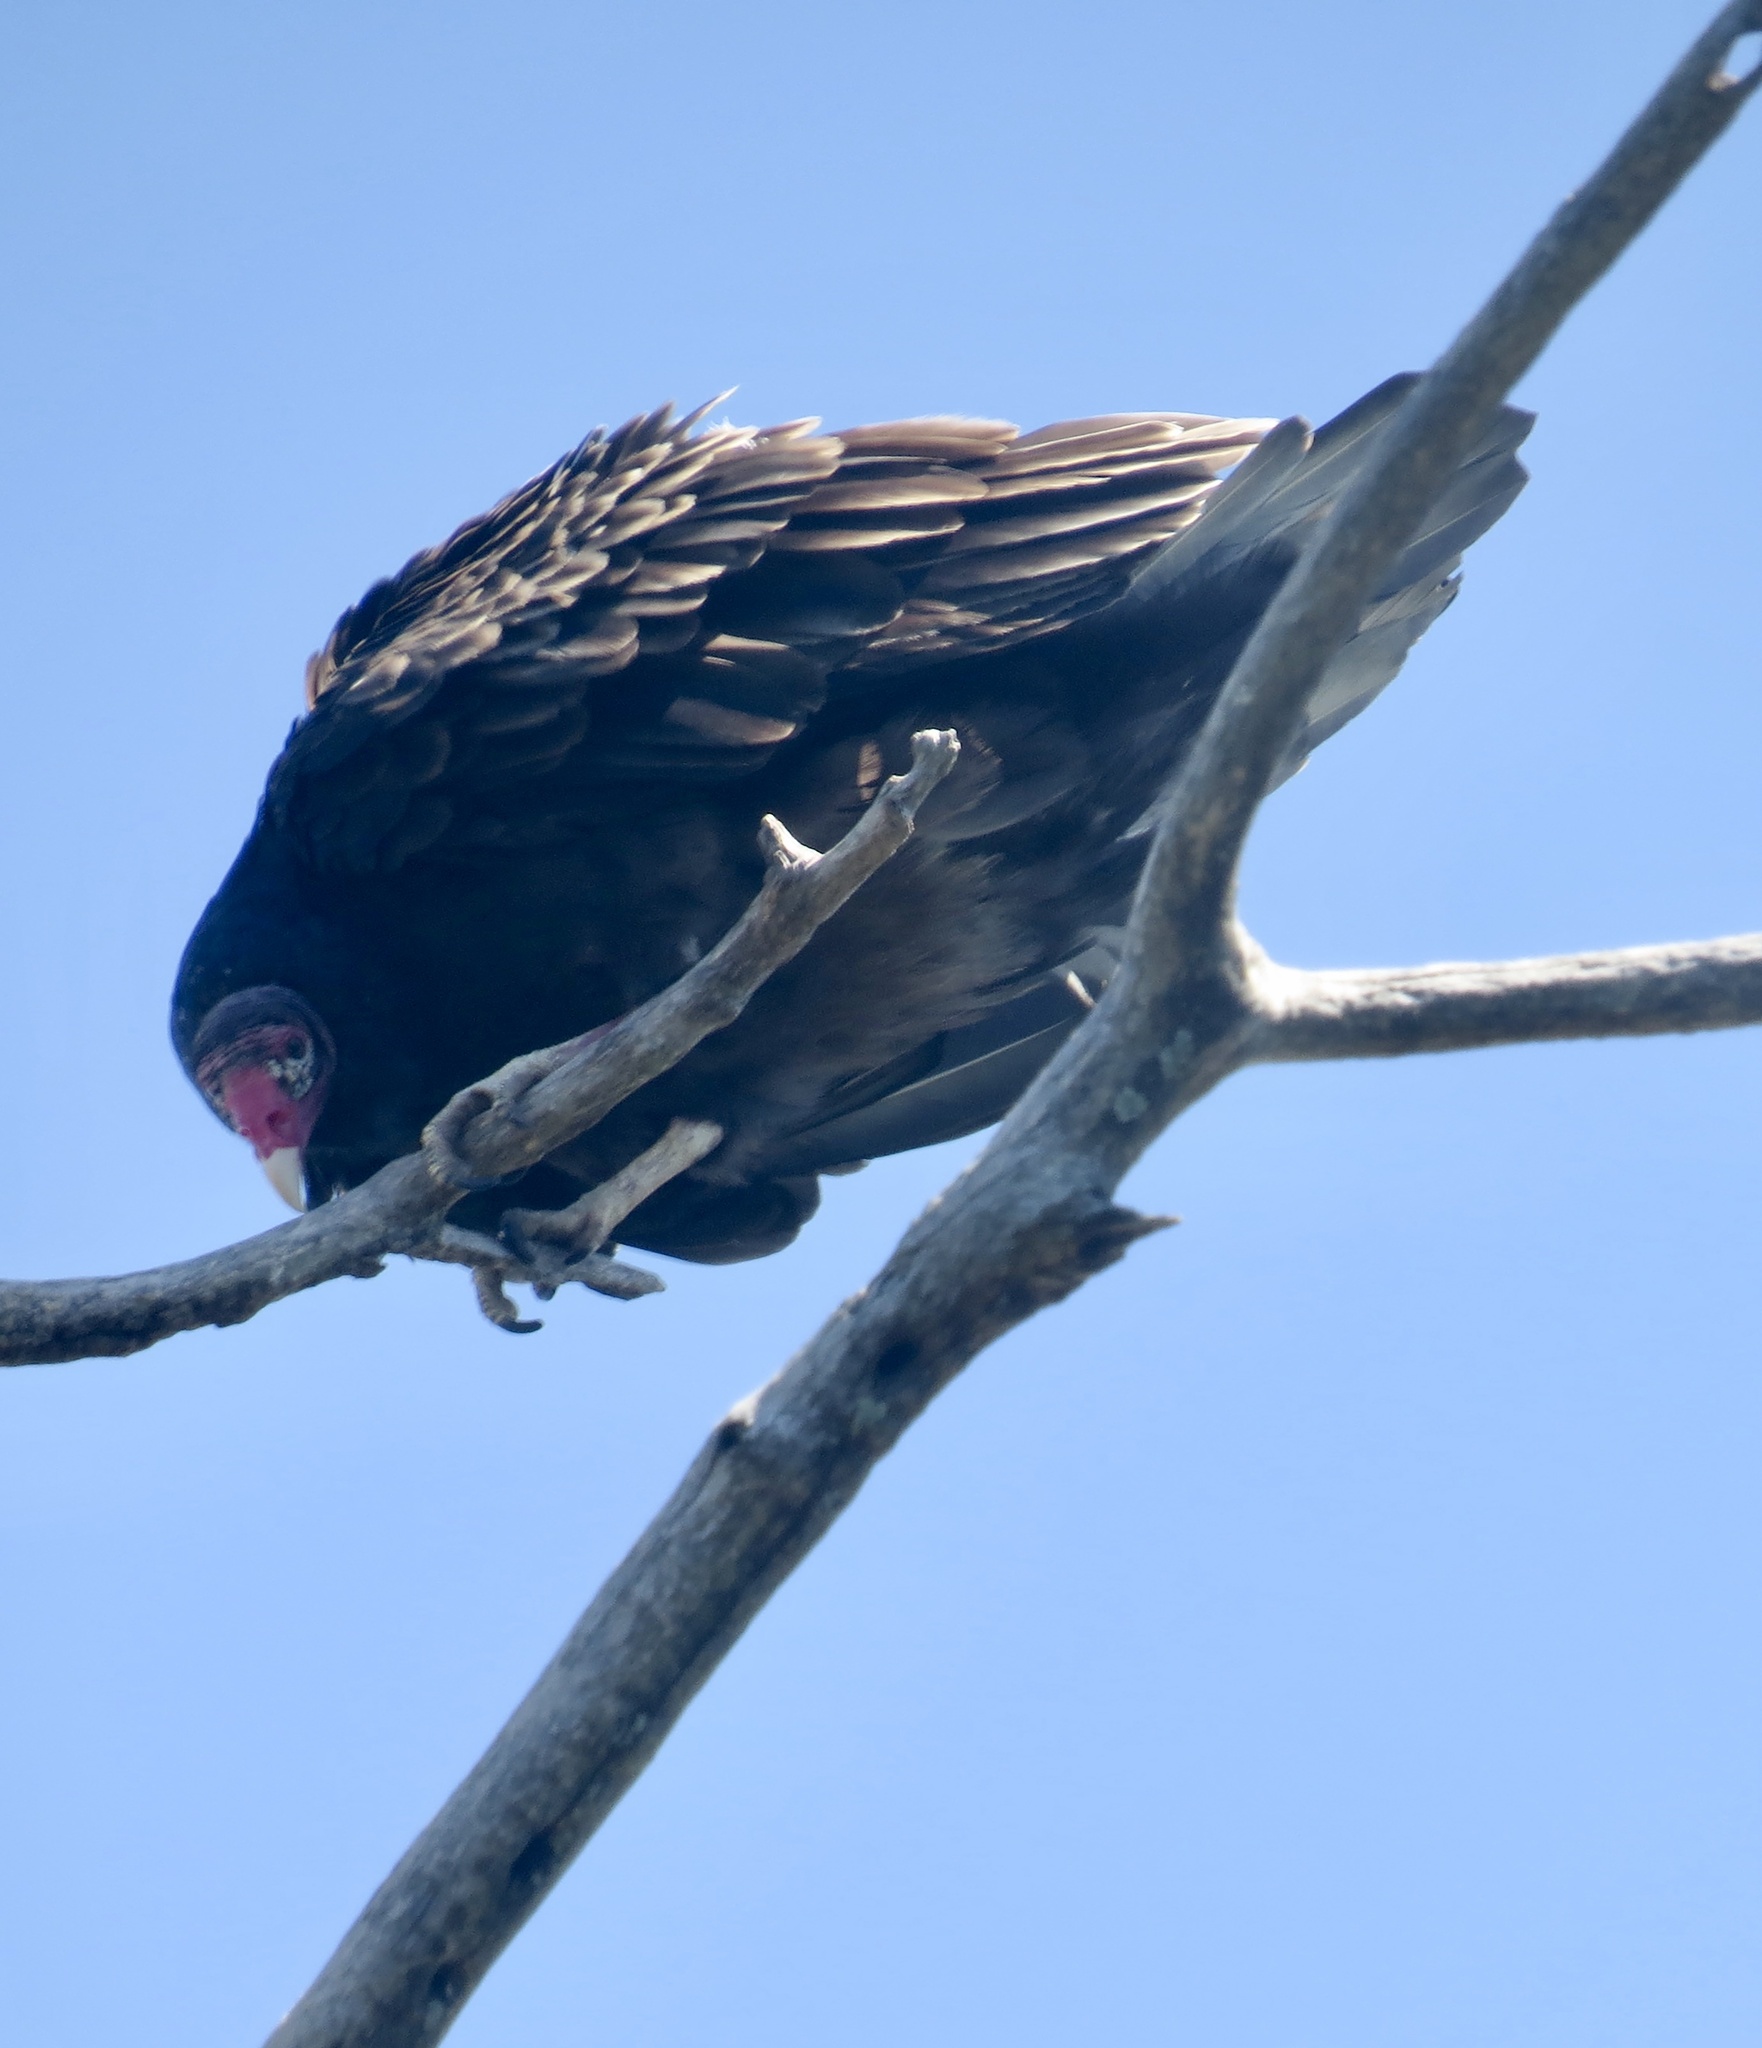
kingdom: Animalia
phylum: Chordata
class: Aves
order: Accipitriformes
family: Cathartidae
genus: Cathartes
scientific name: Cathartes aura
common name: Turkey vulture
